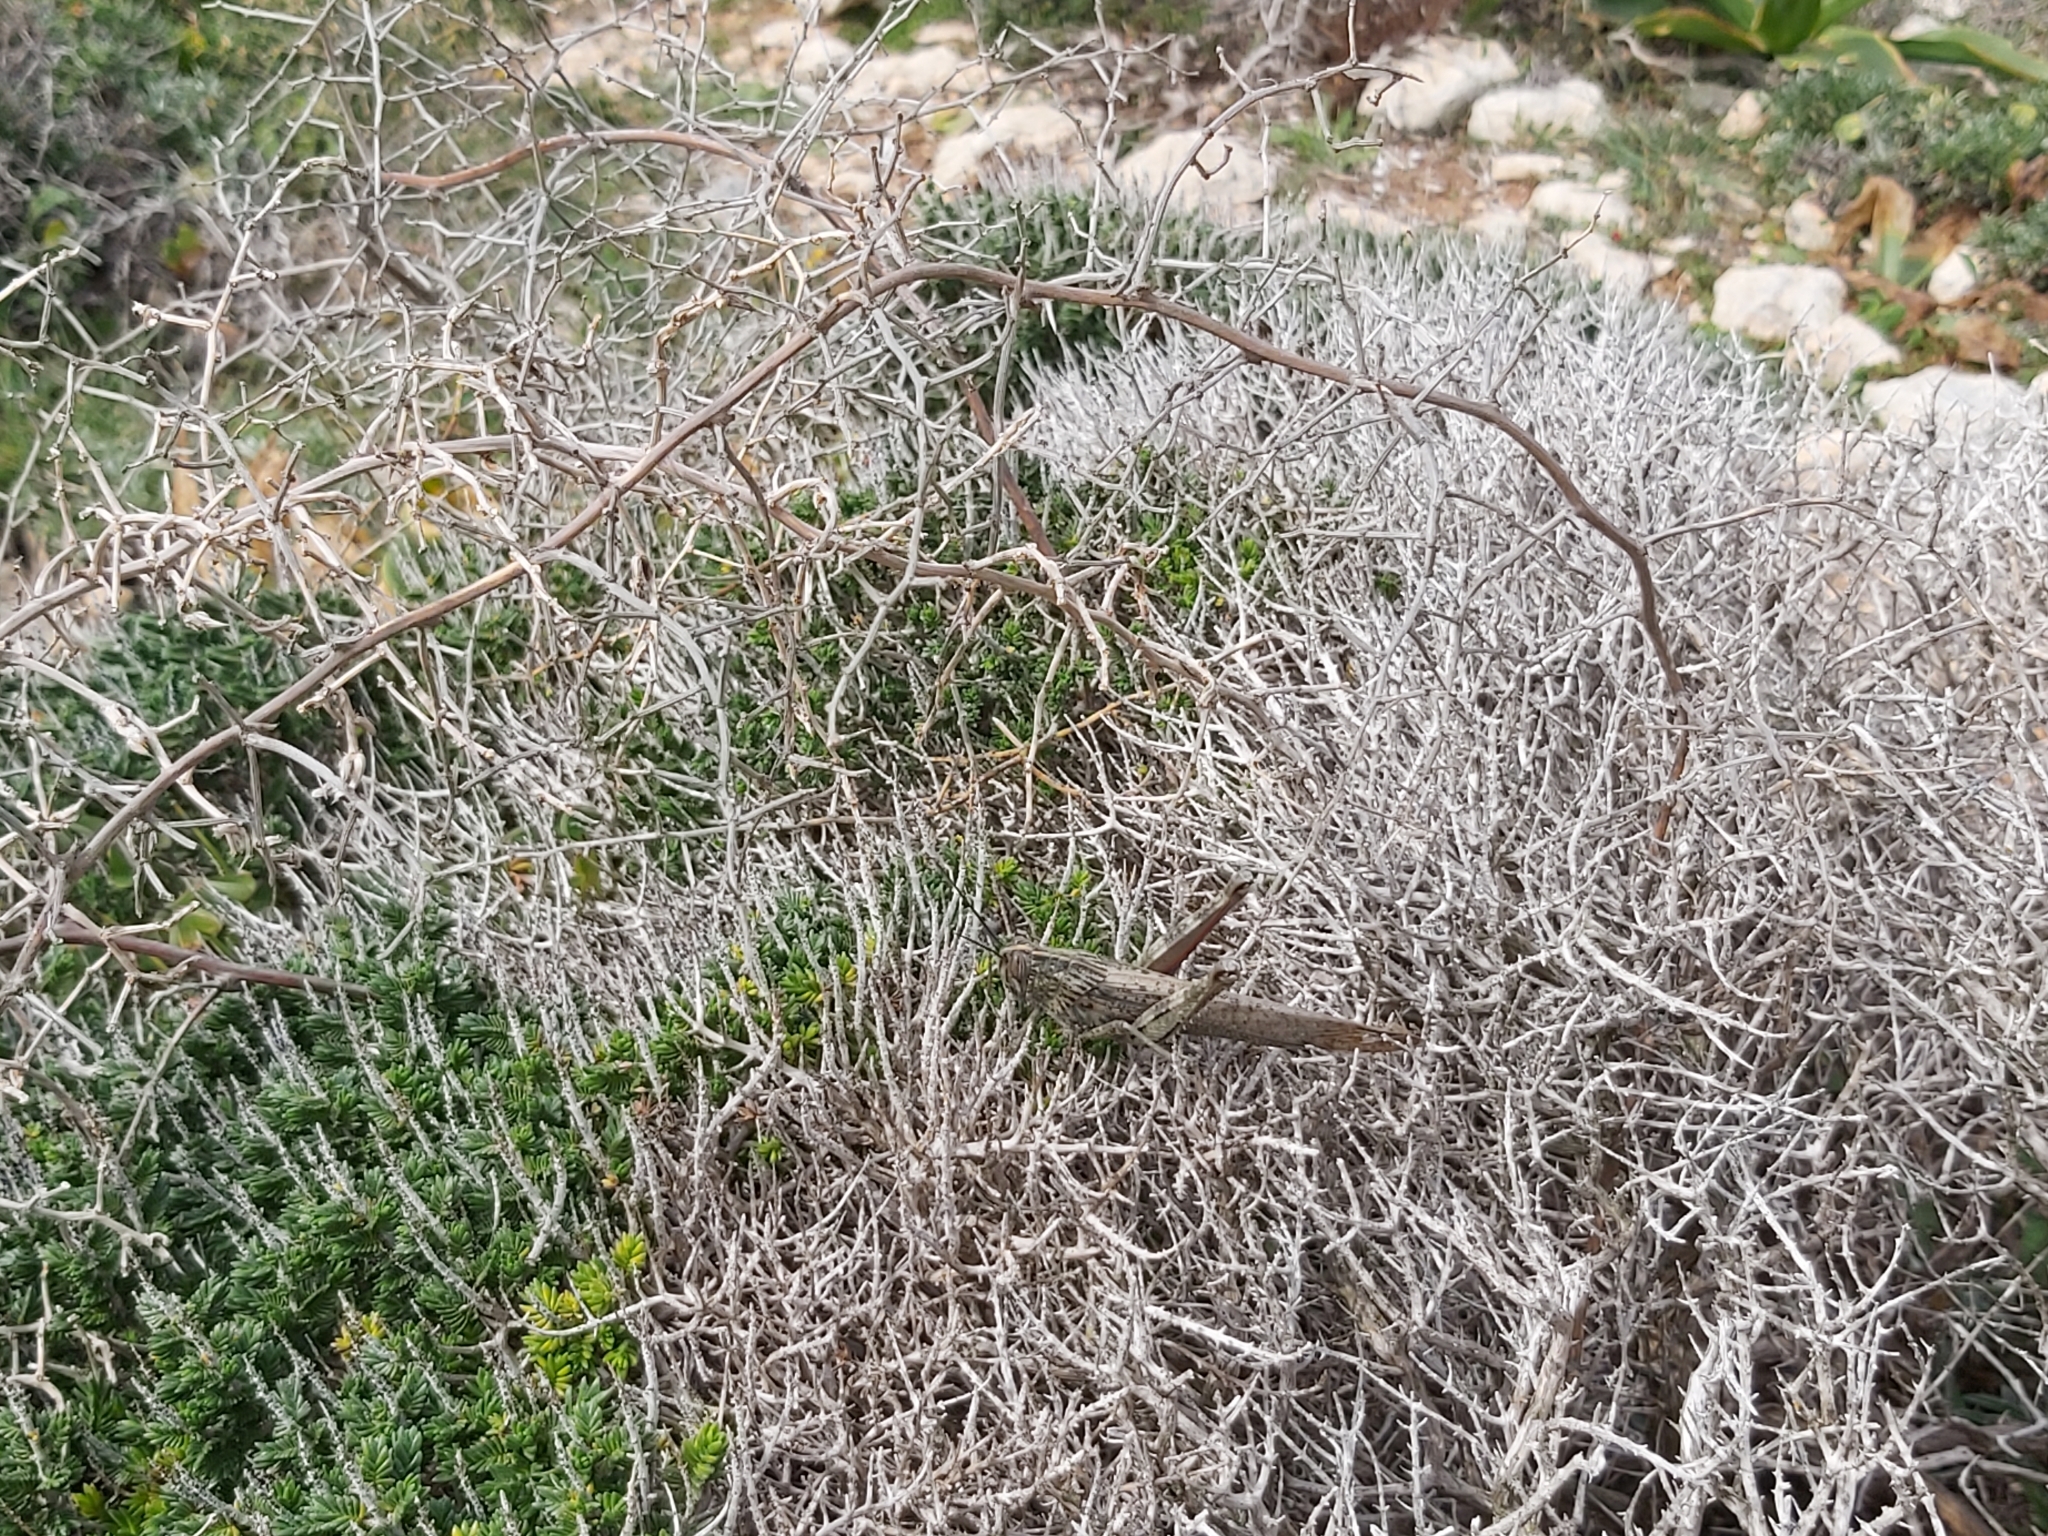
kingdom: Animalia
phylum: Arthropoda
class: Insecta
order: Orthoptera
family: Acrididae
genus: Anacridium
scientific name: Anacridium aegyptium
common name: Egyptian grasshopper
